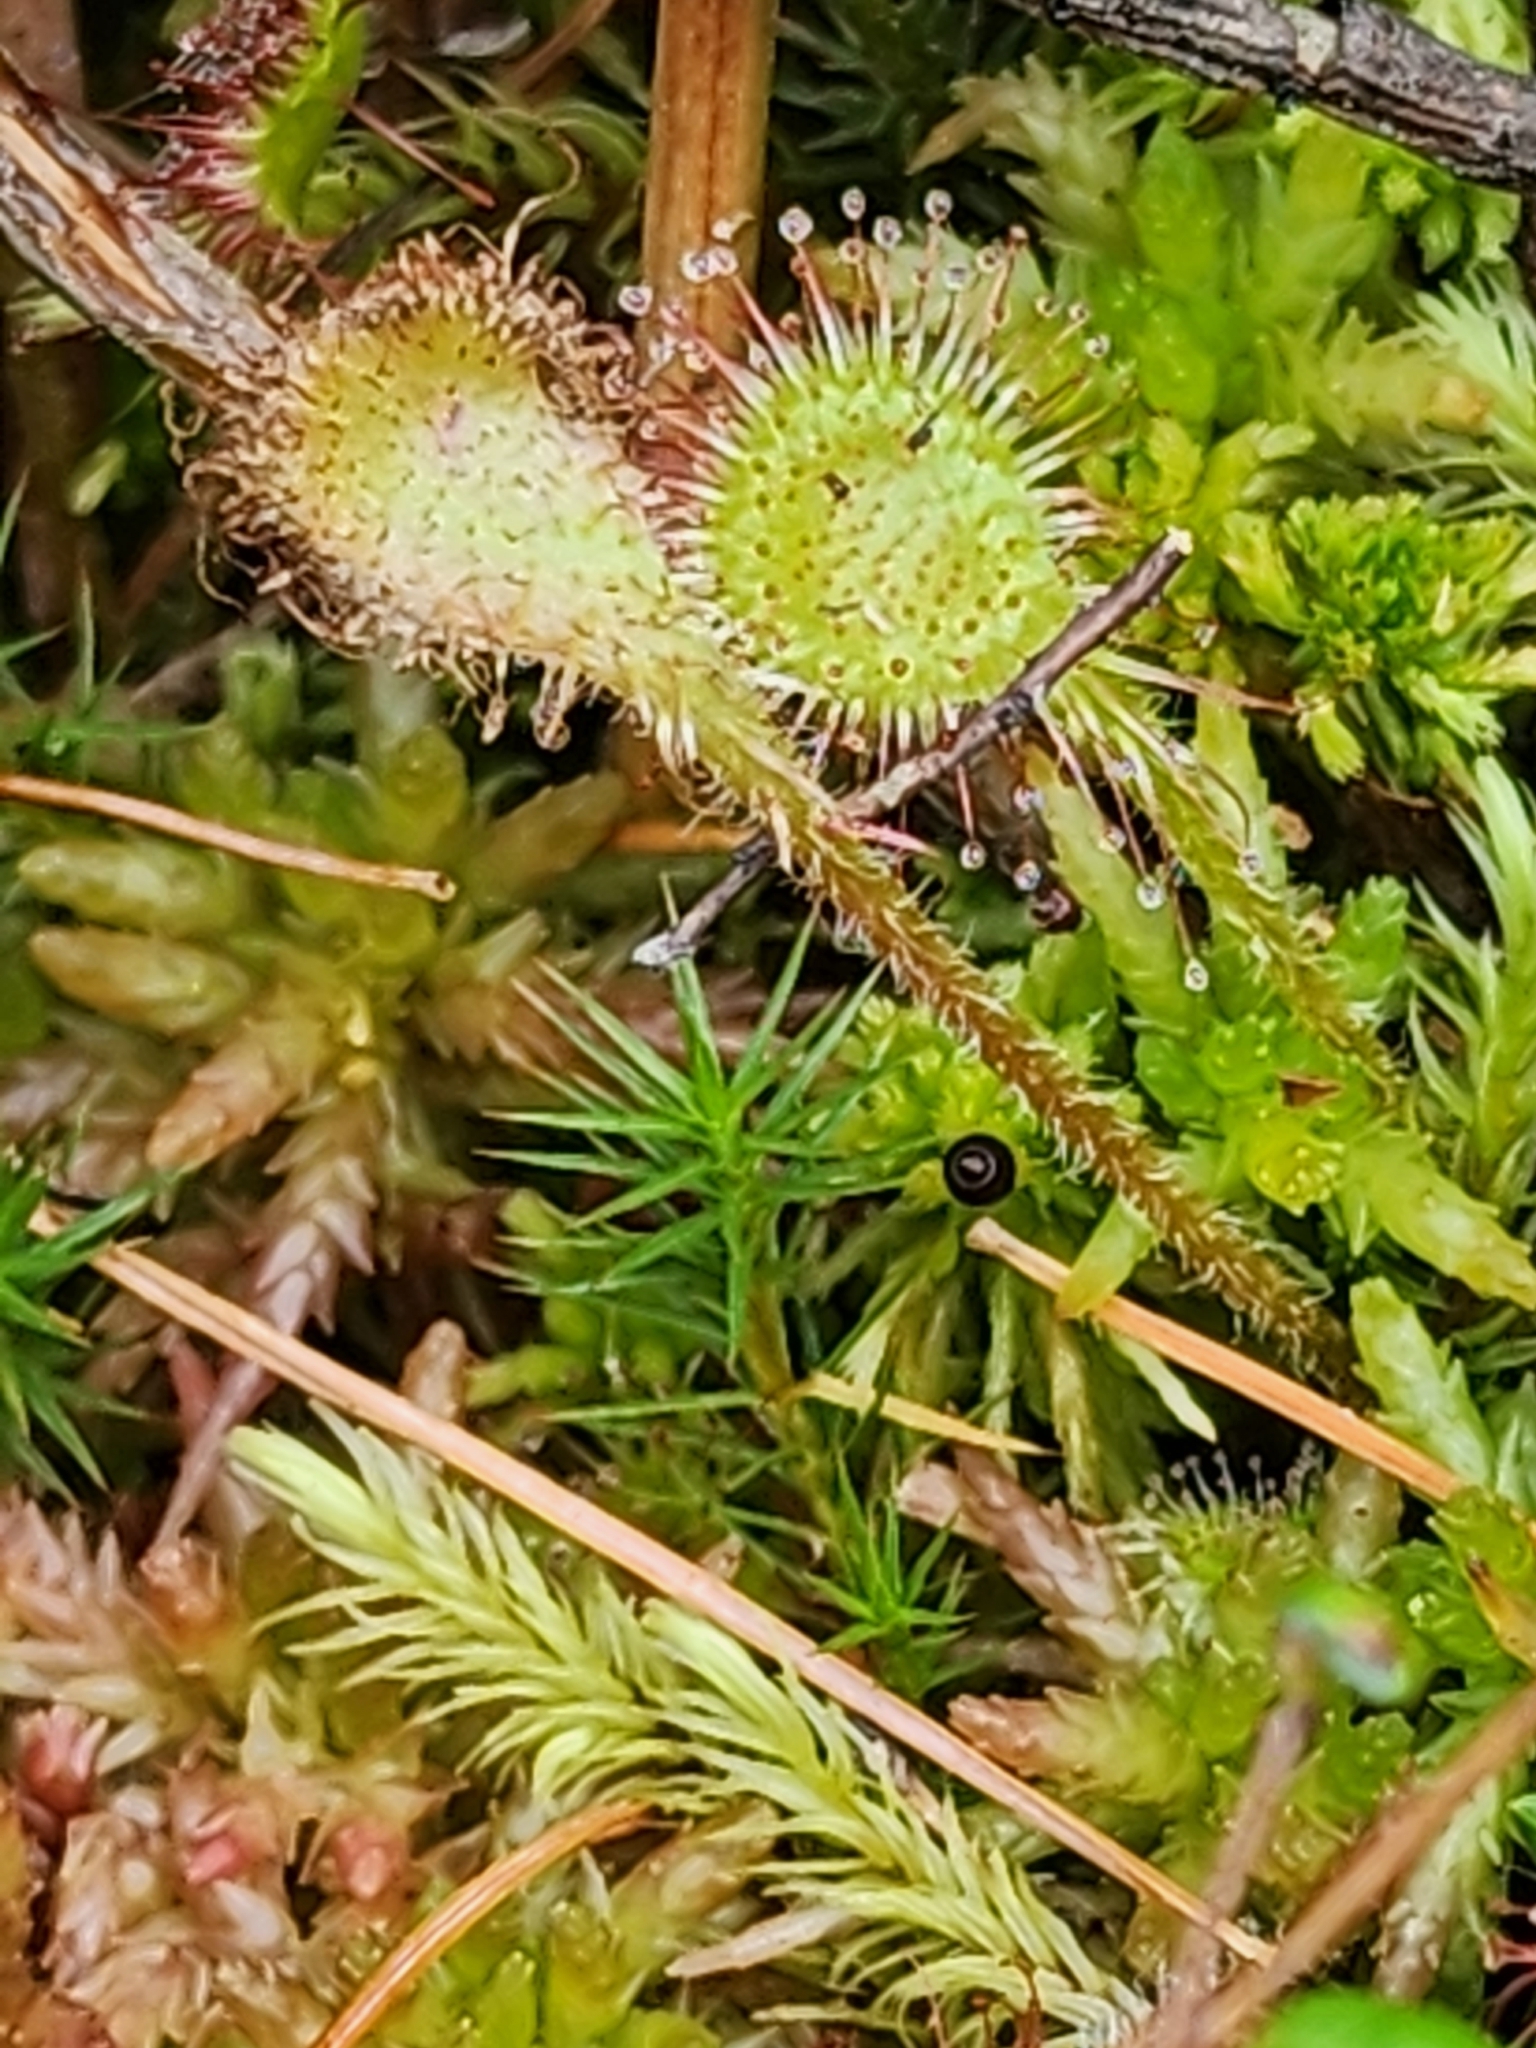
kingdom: Plantae
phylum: Tracheophyta
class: Magnoliopsida
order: Caryophyllales
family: Droseraceae
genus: Drosera
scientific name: Drosera rotundifolia
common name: Round-leaved sundew
